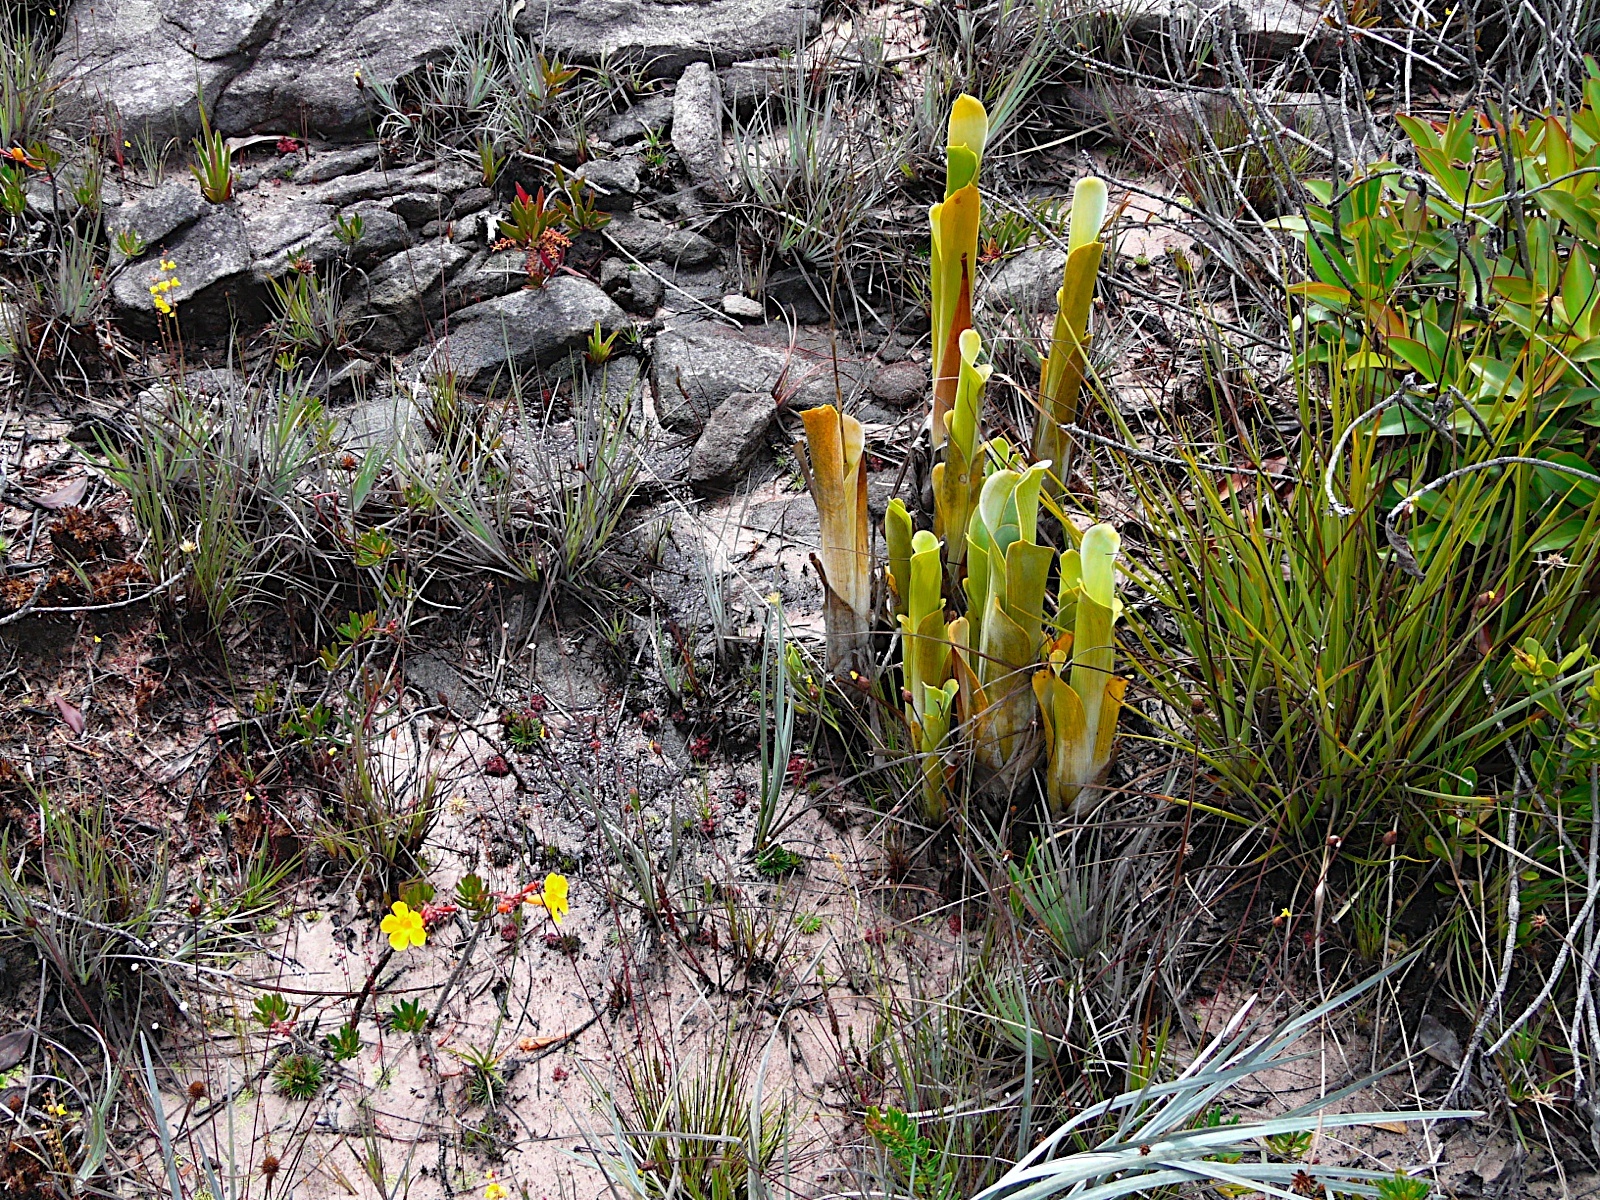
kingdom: Plantae
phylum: Tracheophyta
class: Liliopsida
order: Poales
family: Bromeliaceae
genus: Brocchinia
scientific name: Brocchinia reducta
